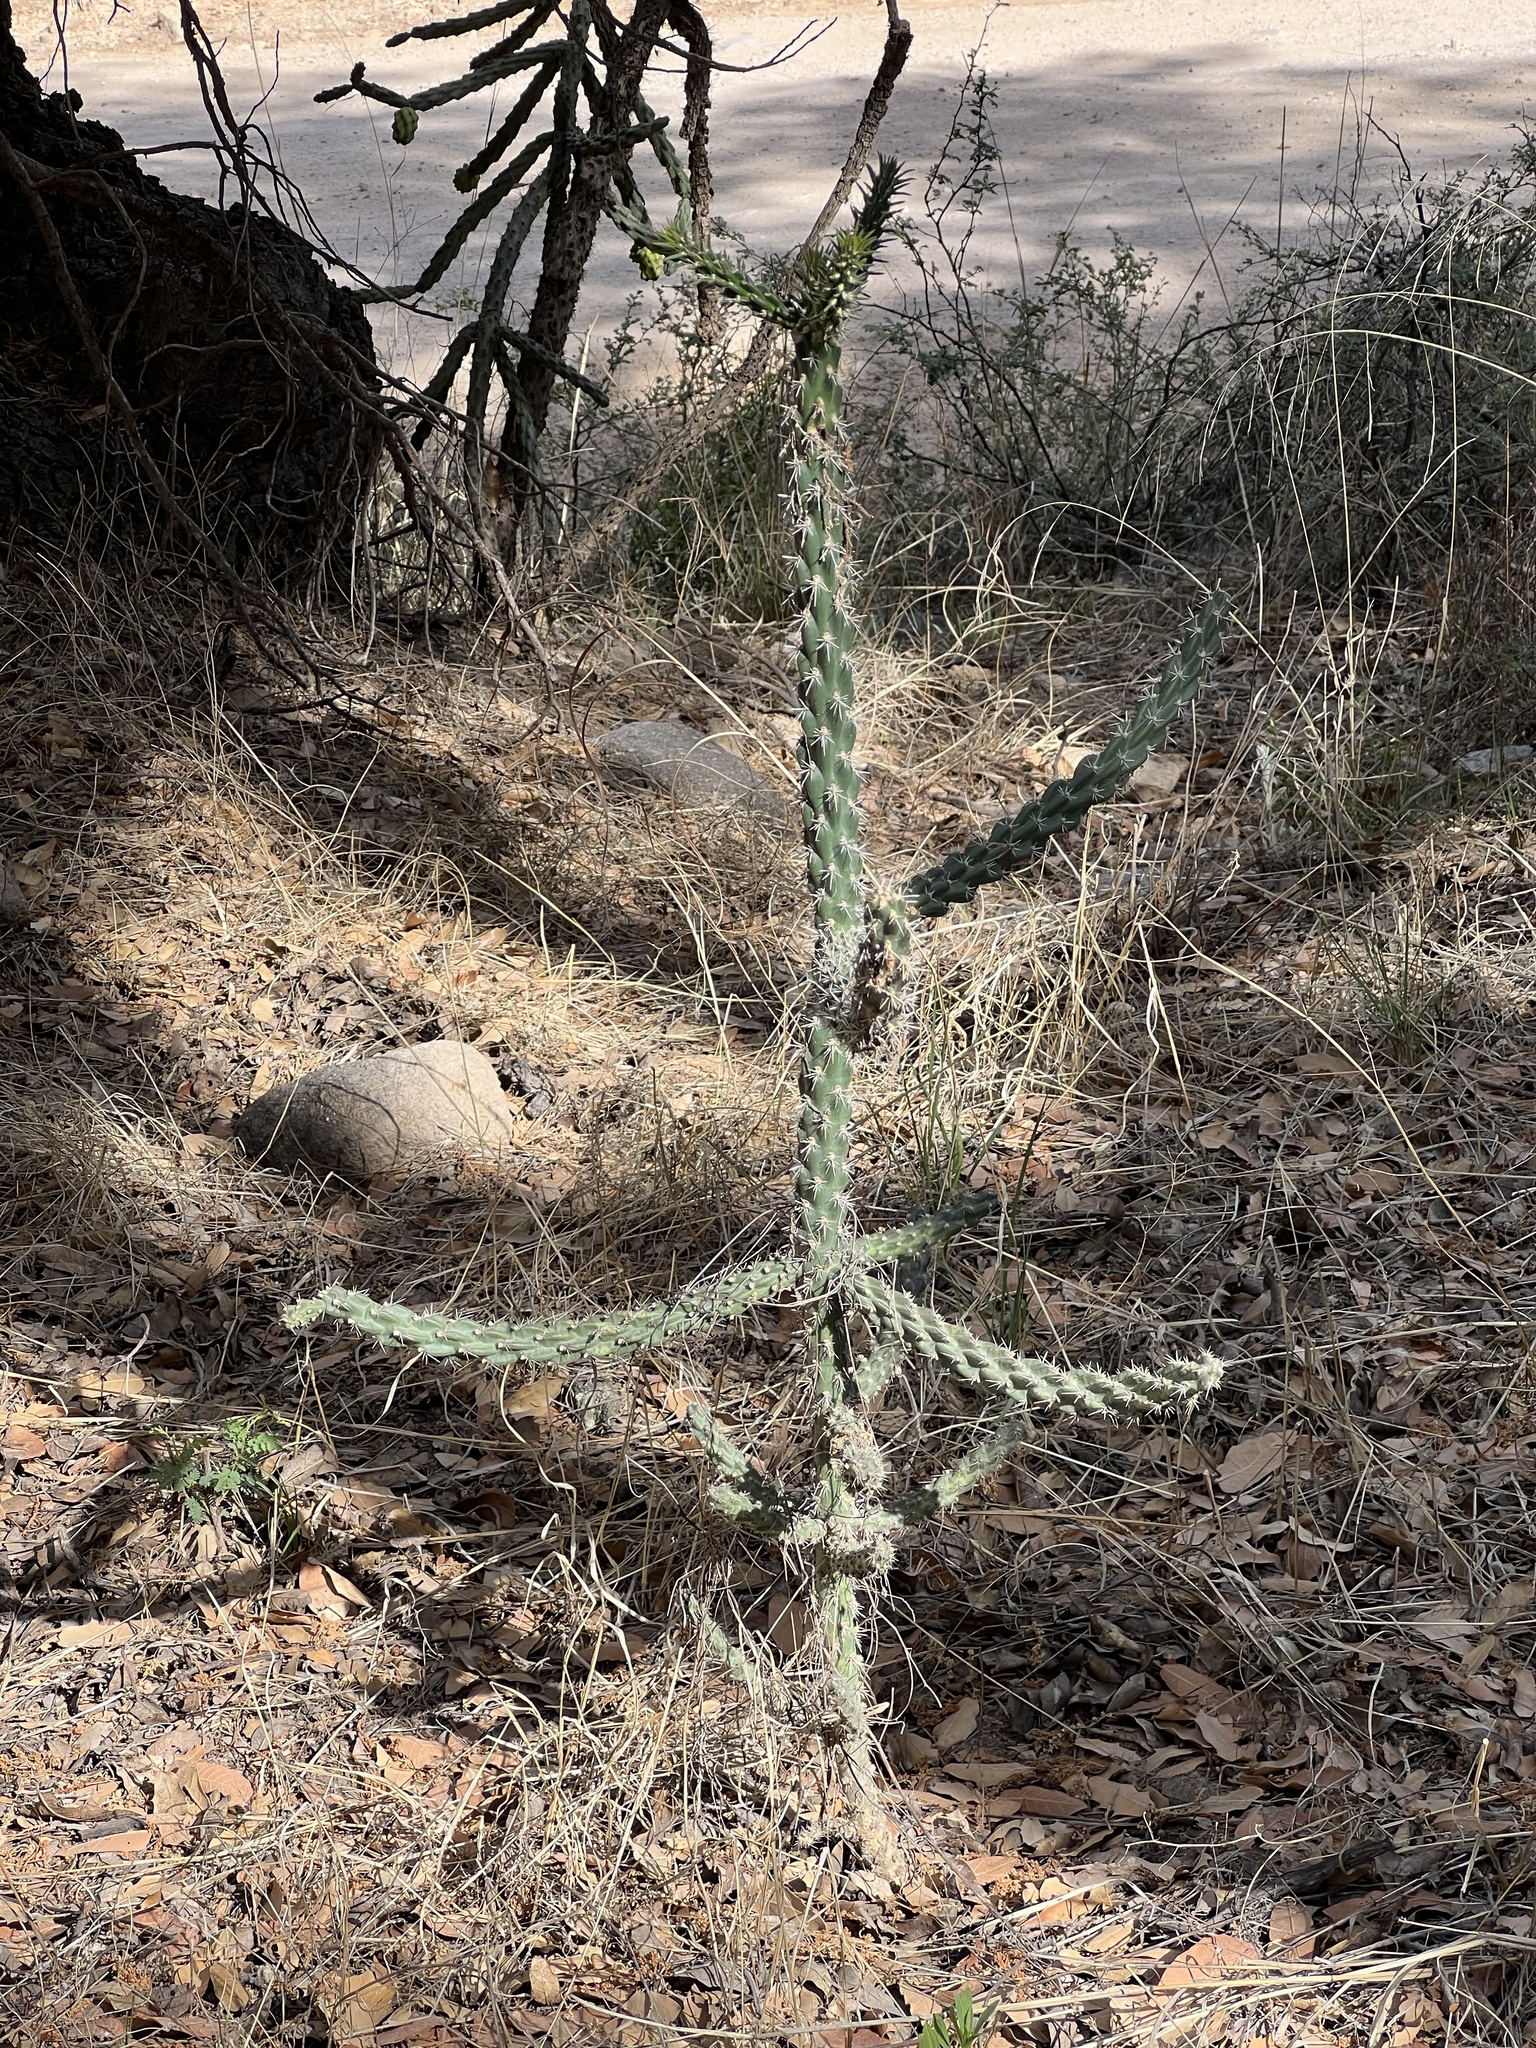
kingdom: Plantae
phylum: Tracheophyta
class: Magnoliopsida
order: Caryophyllales
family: Cactaceae
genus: Cylindropuntia
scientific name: Cylindropuntia imbricata
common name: Candelabrum cactus
